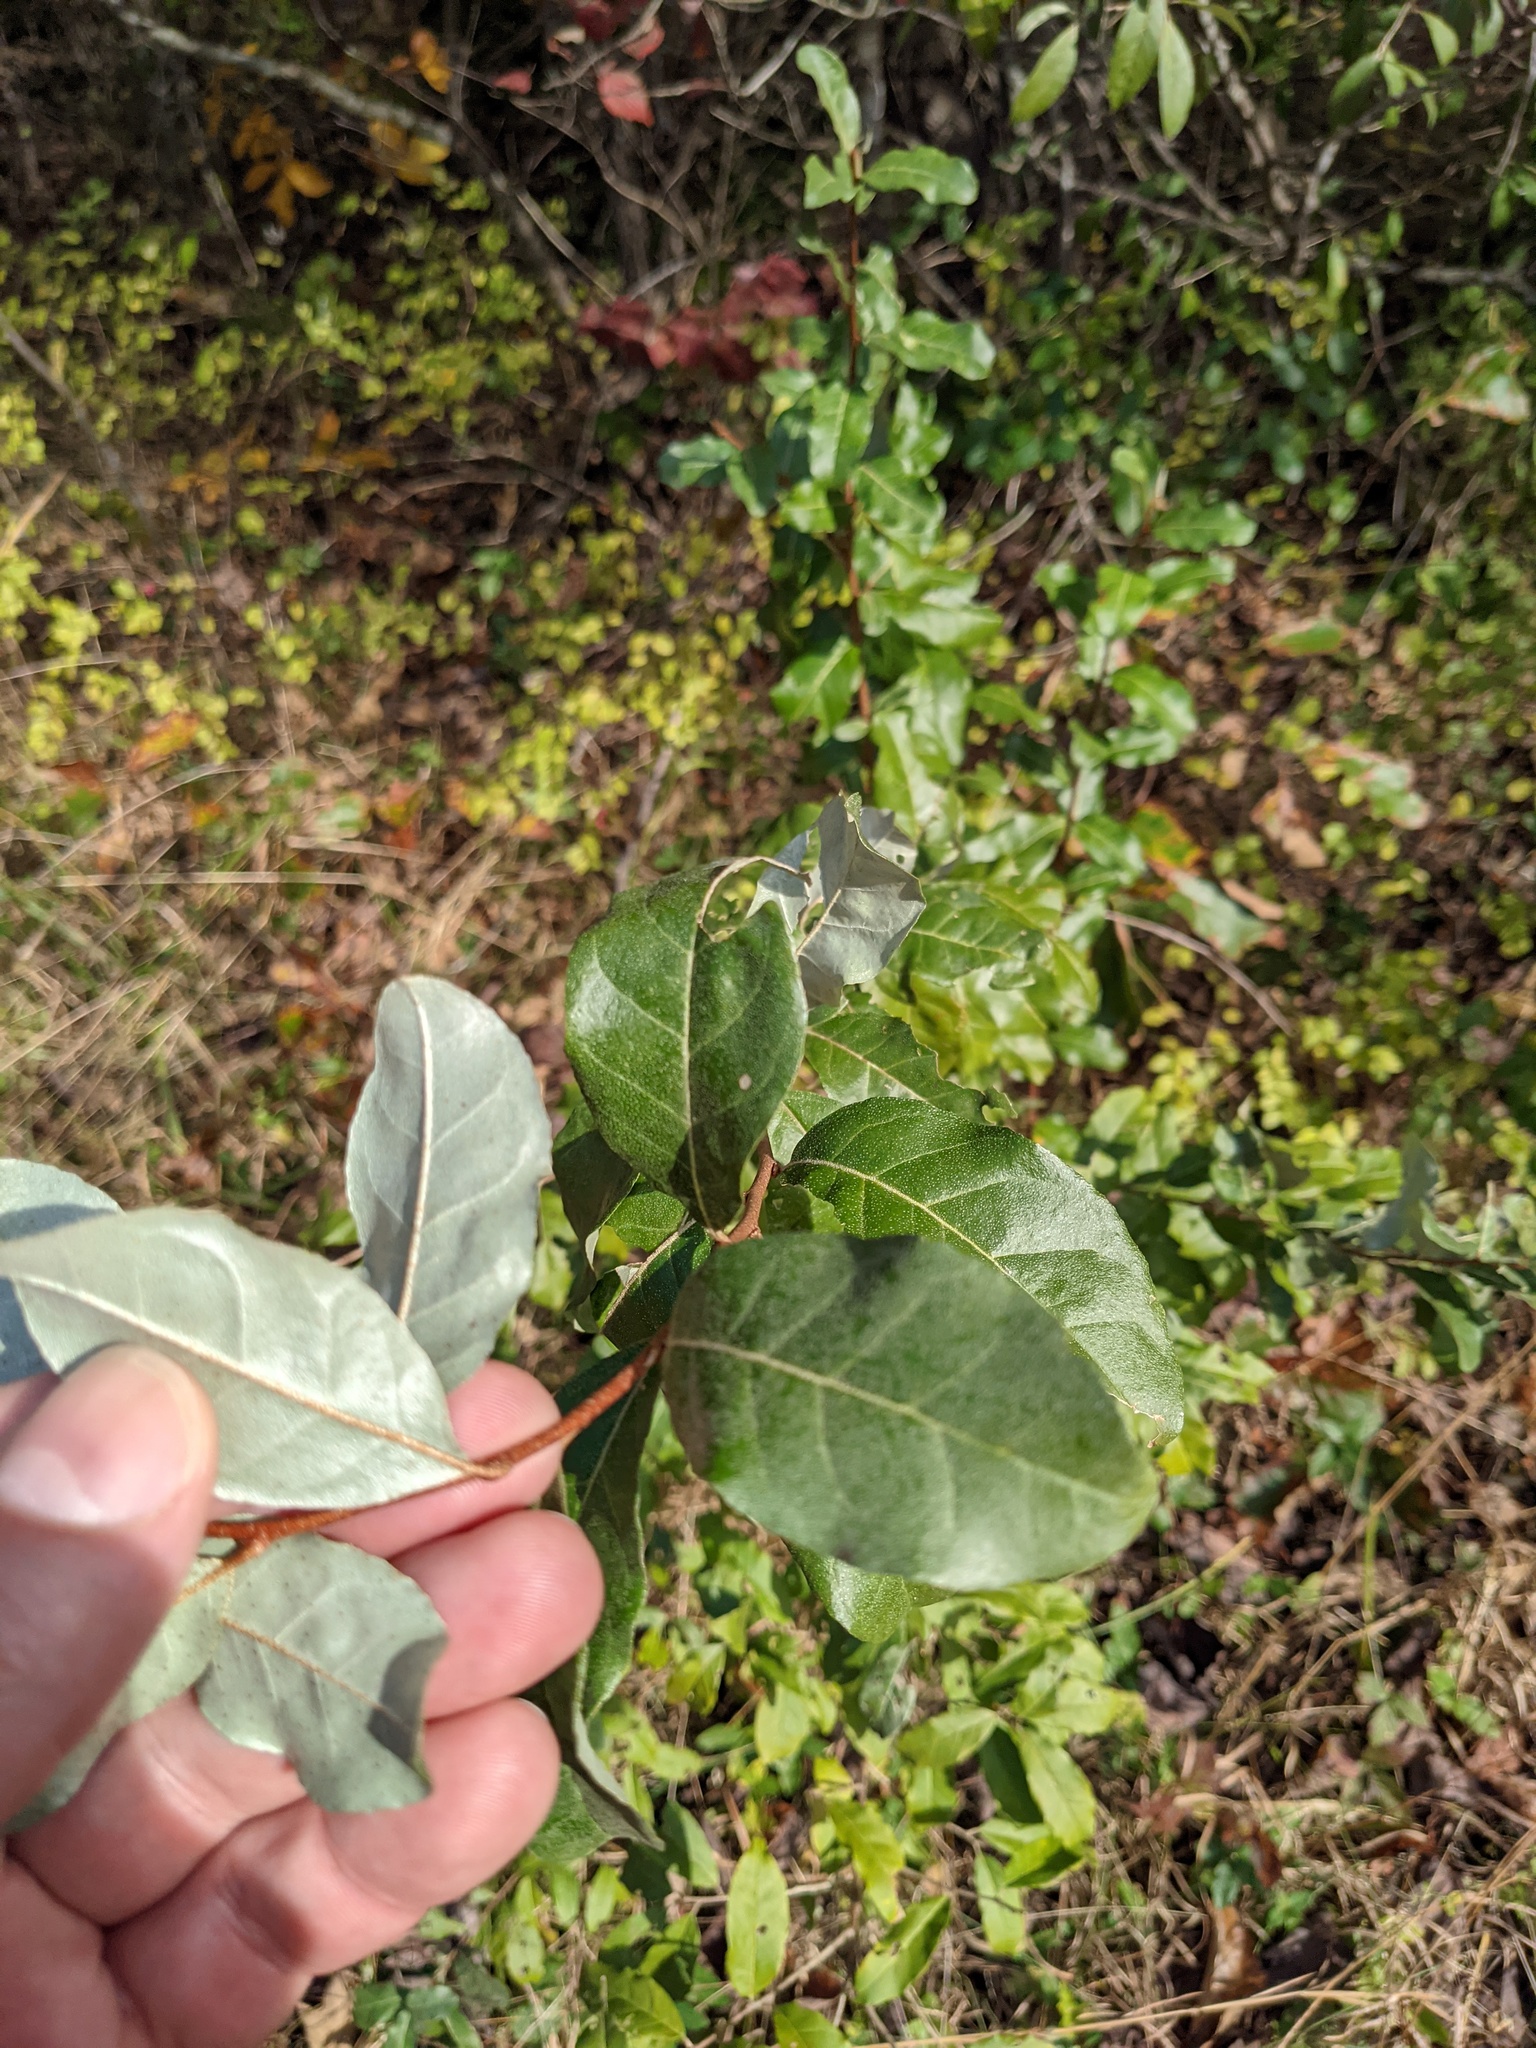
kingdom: Plantae
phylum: Tracheophyta
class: Magnoliopsida
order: Rosales
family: Elaeagnaceae
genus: Elaeagnus
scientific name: Elaeagnus umbellata
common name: Autumn olive
